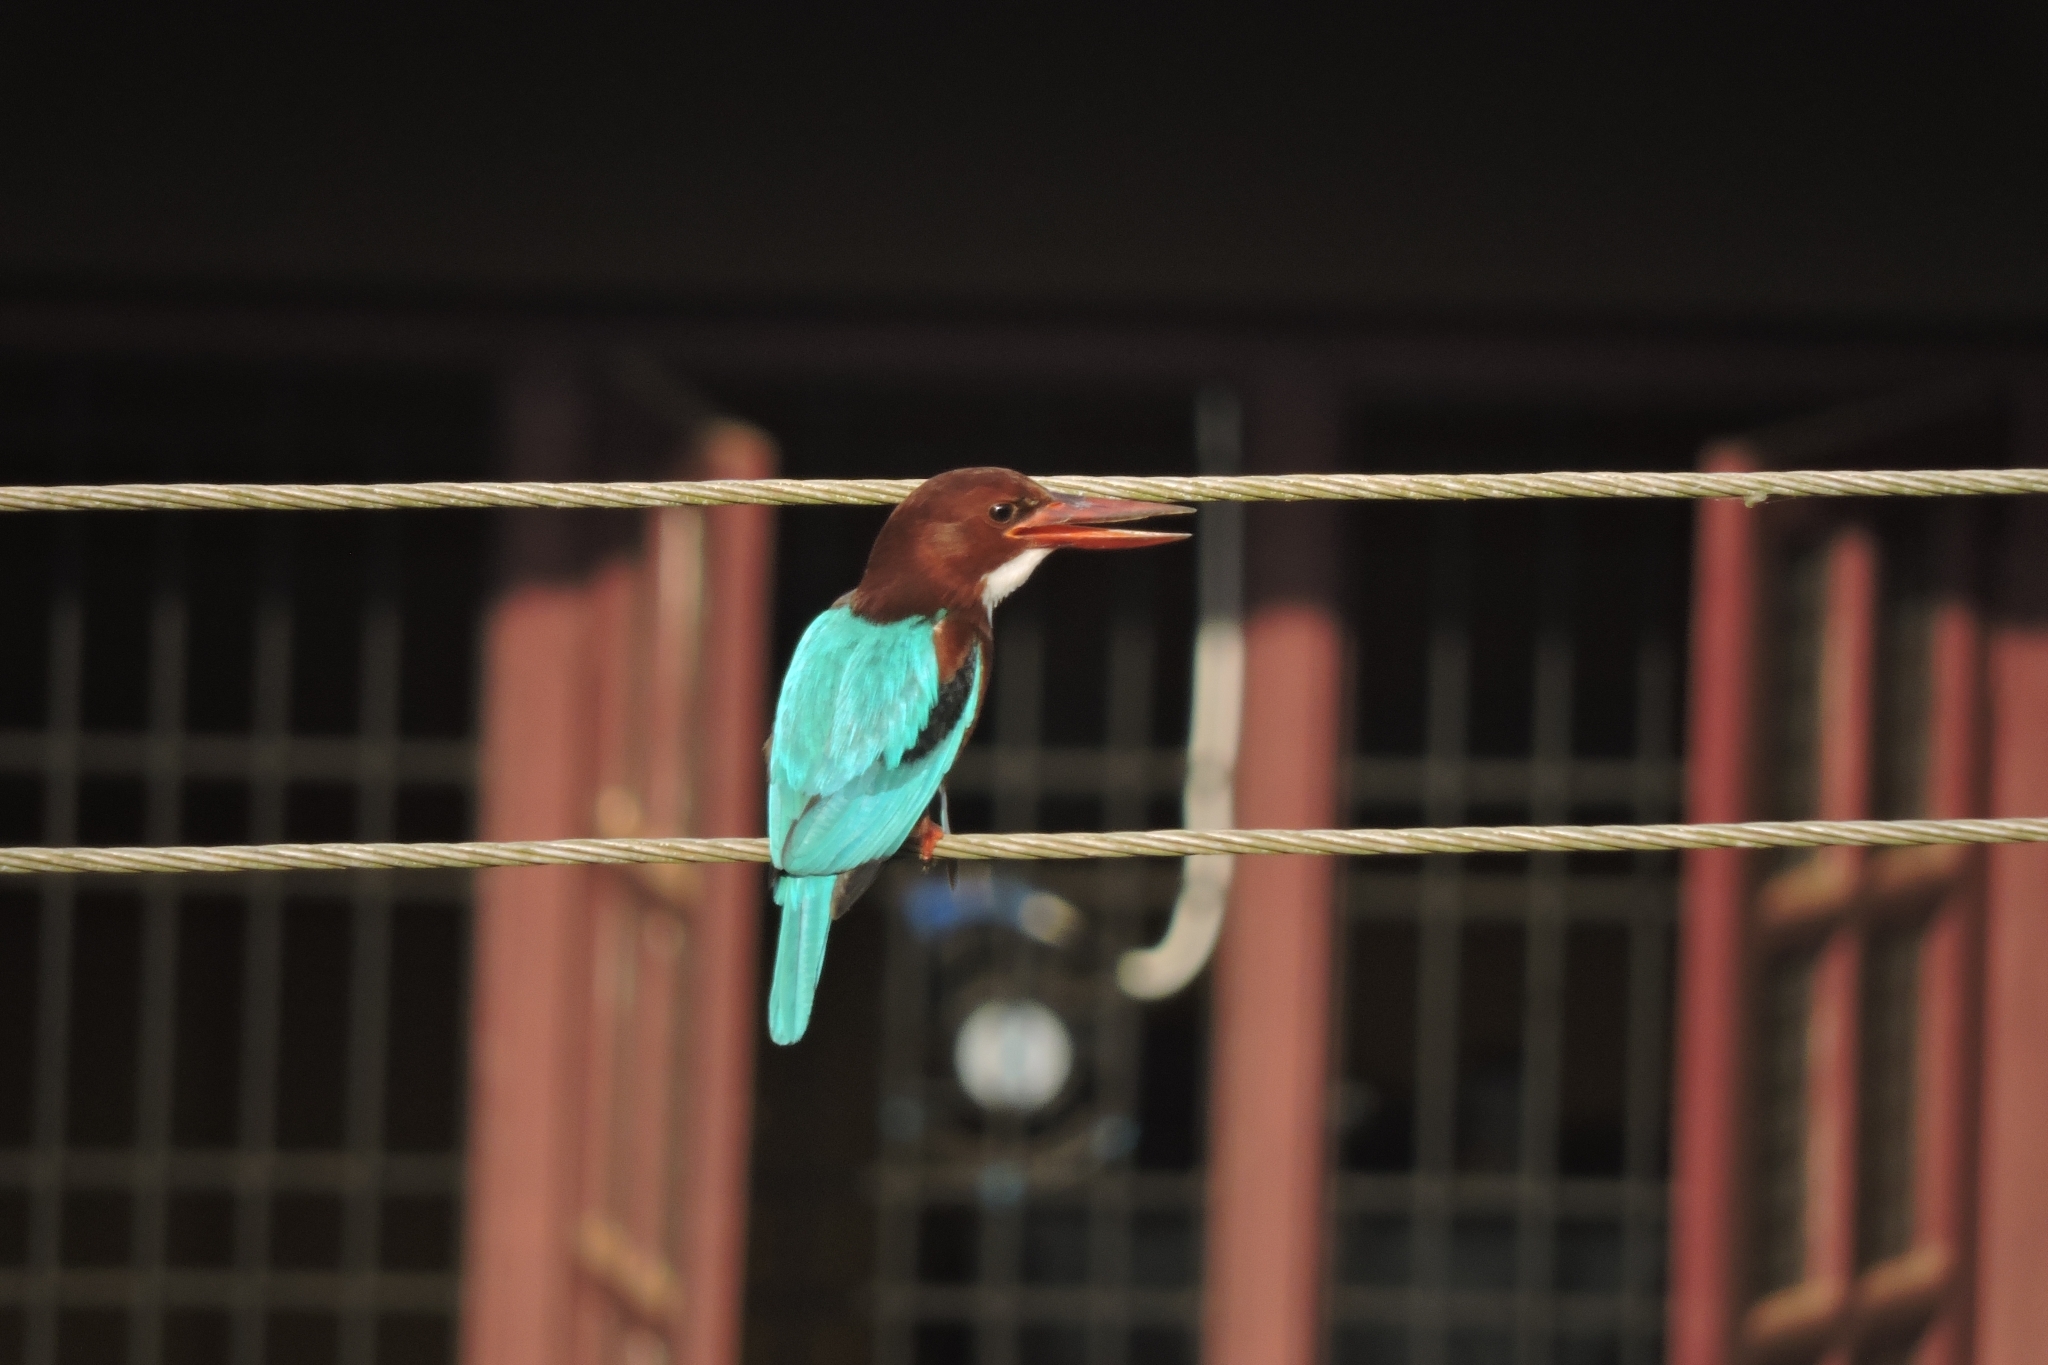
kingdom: Animalia
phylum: Chordata
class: Aves
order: Coraciiformes
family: Alcedinidae
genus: Halcyon
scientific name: Halcyon smyrnensis
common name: White-throated kingfisher
